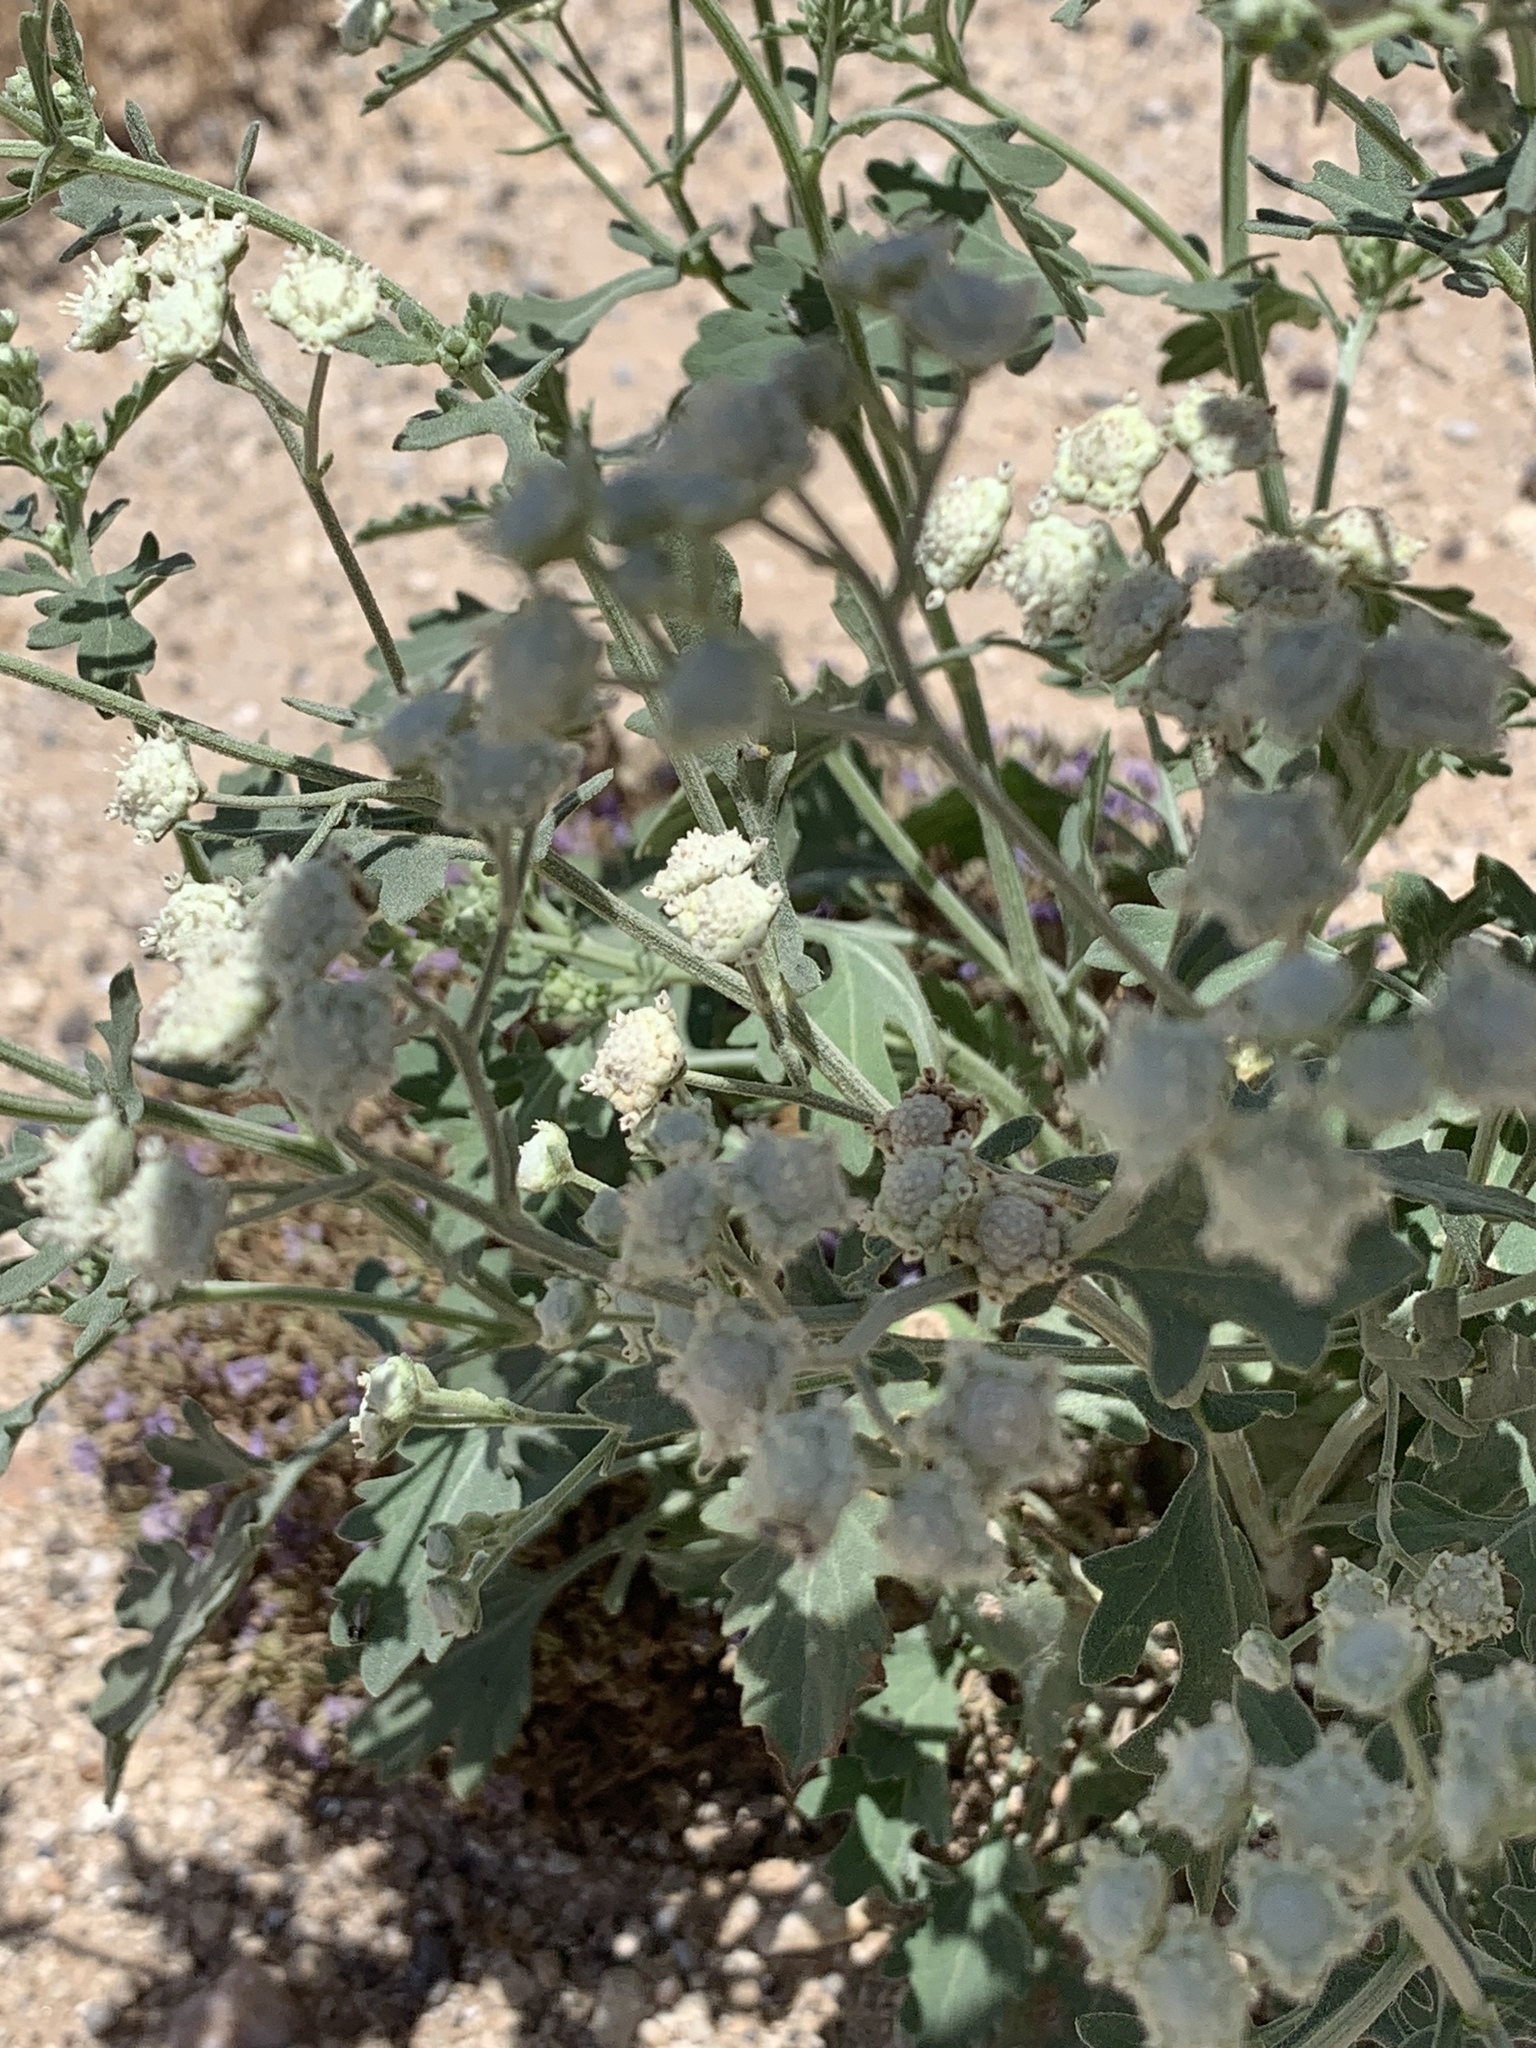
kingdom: Plantae
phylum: Tracheophyta
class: Magnoliopsida
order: Asterales
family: Asteraceae
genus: Parthenium
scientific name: Parthenium confertum
